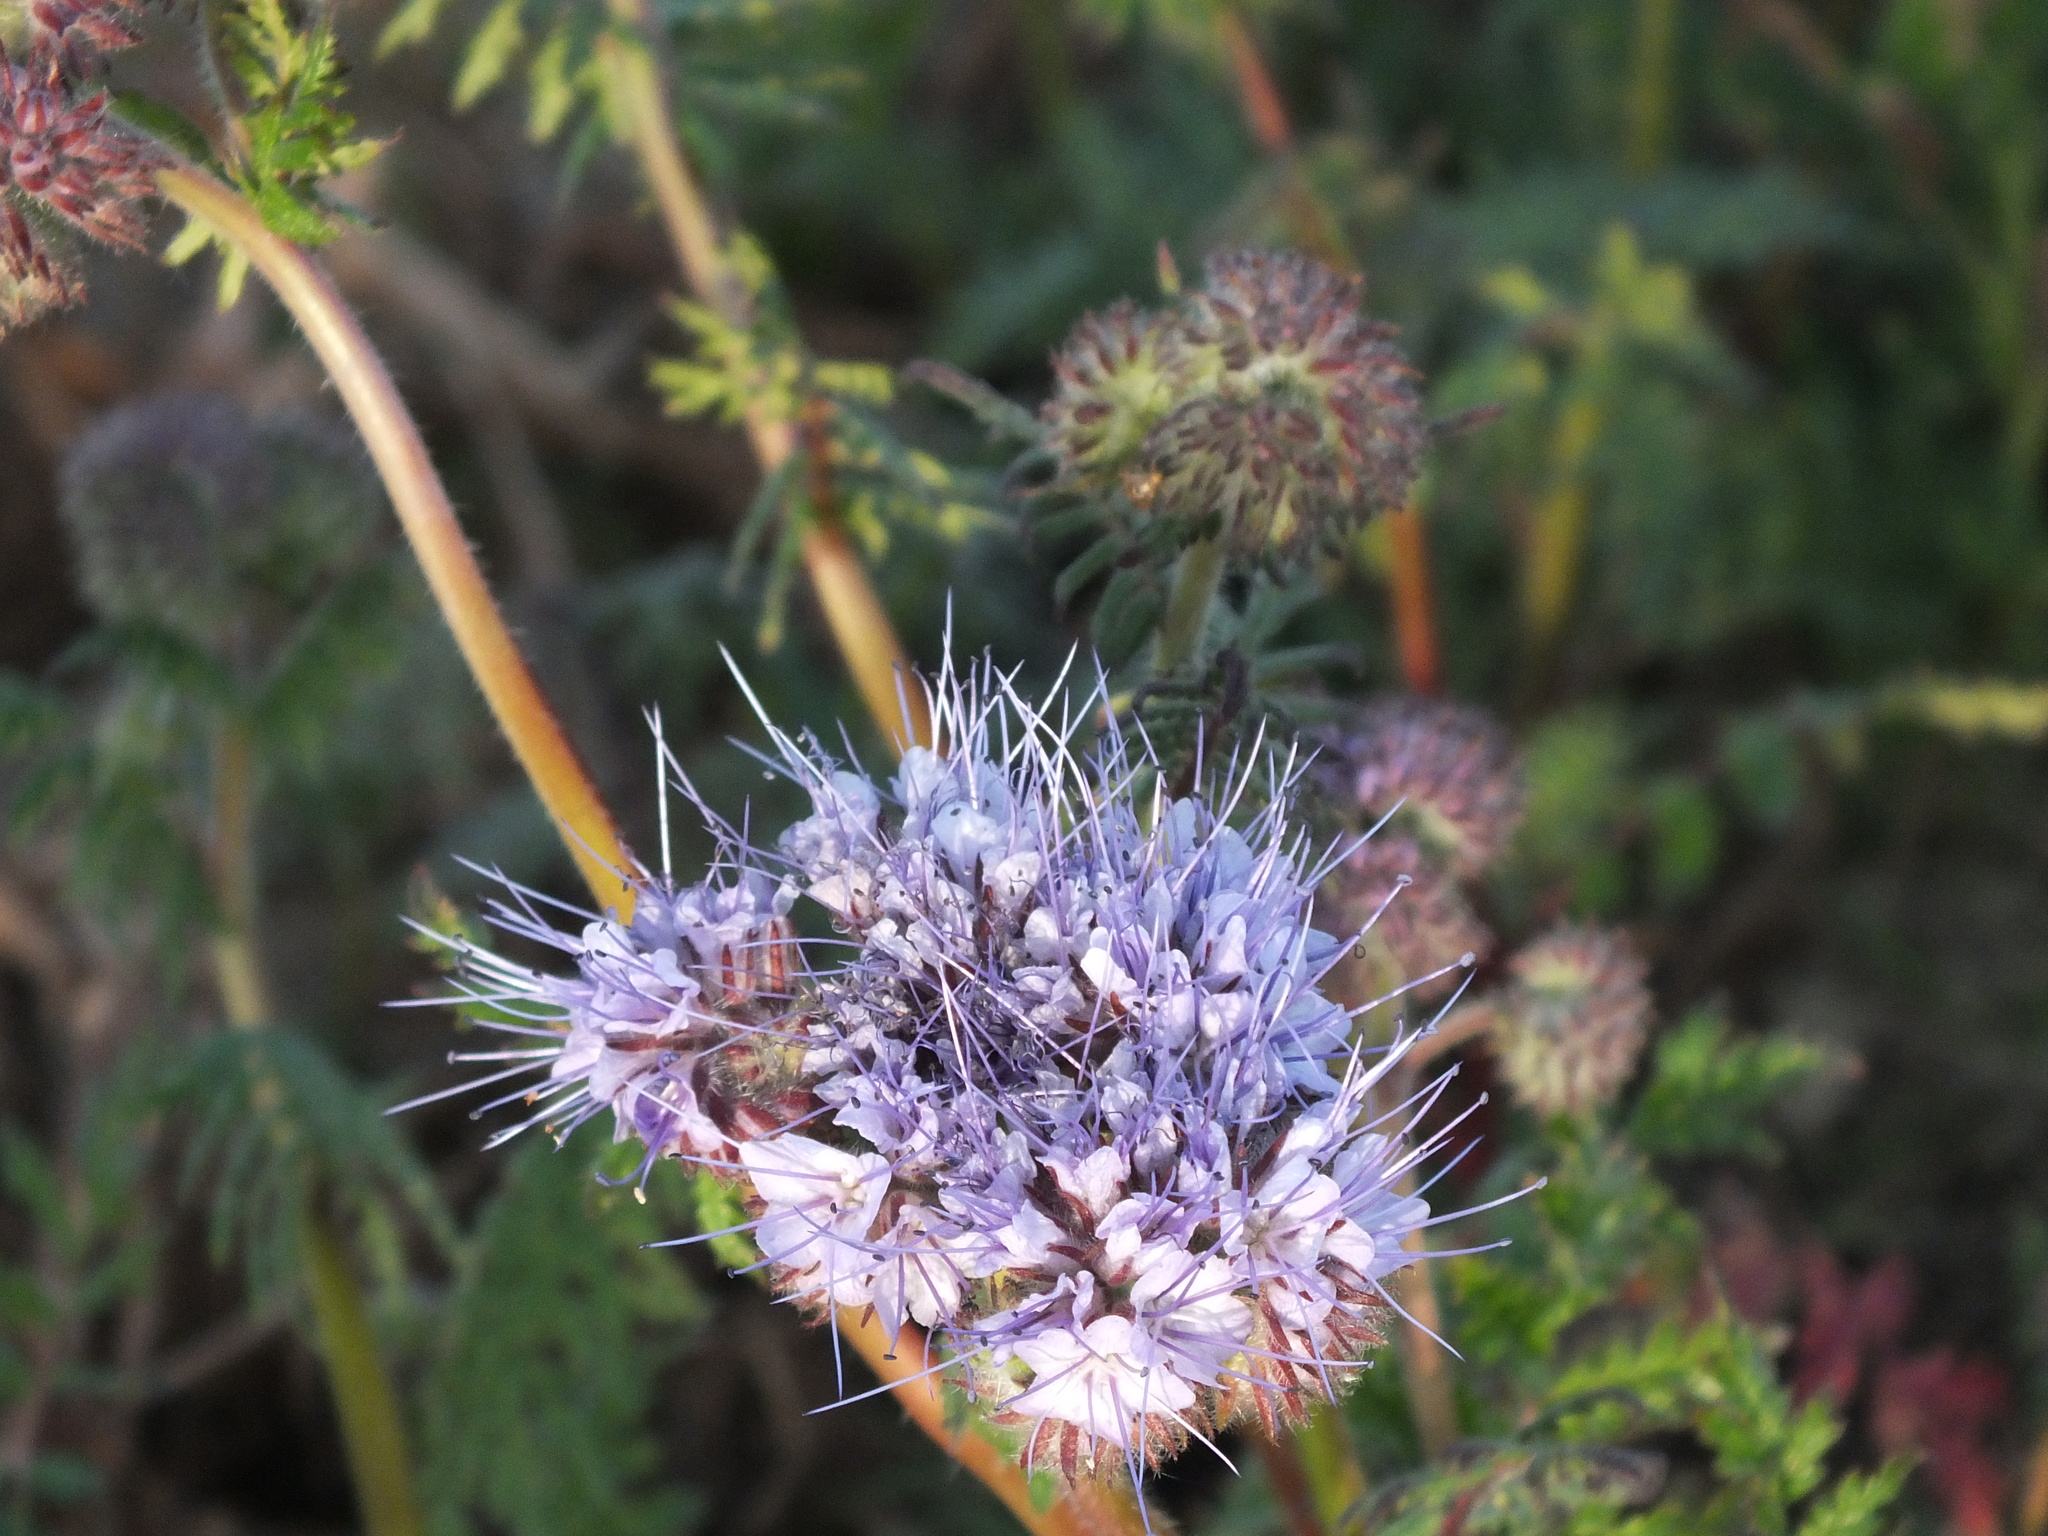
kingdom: Plantae
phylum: Tracheophyta
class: Magnoliopsida
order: Boraginales
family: Hydrophyllaceae
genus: Phacelia
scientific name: Phacelia tanacetifolia
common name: Phacelia
